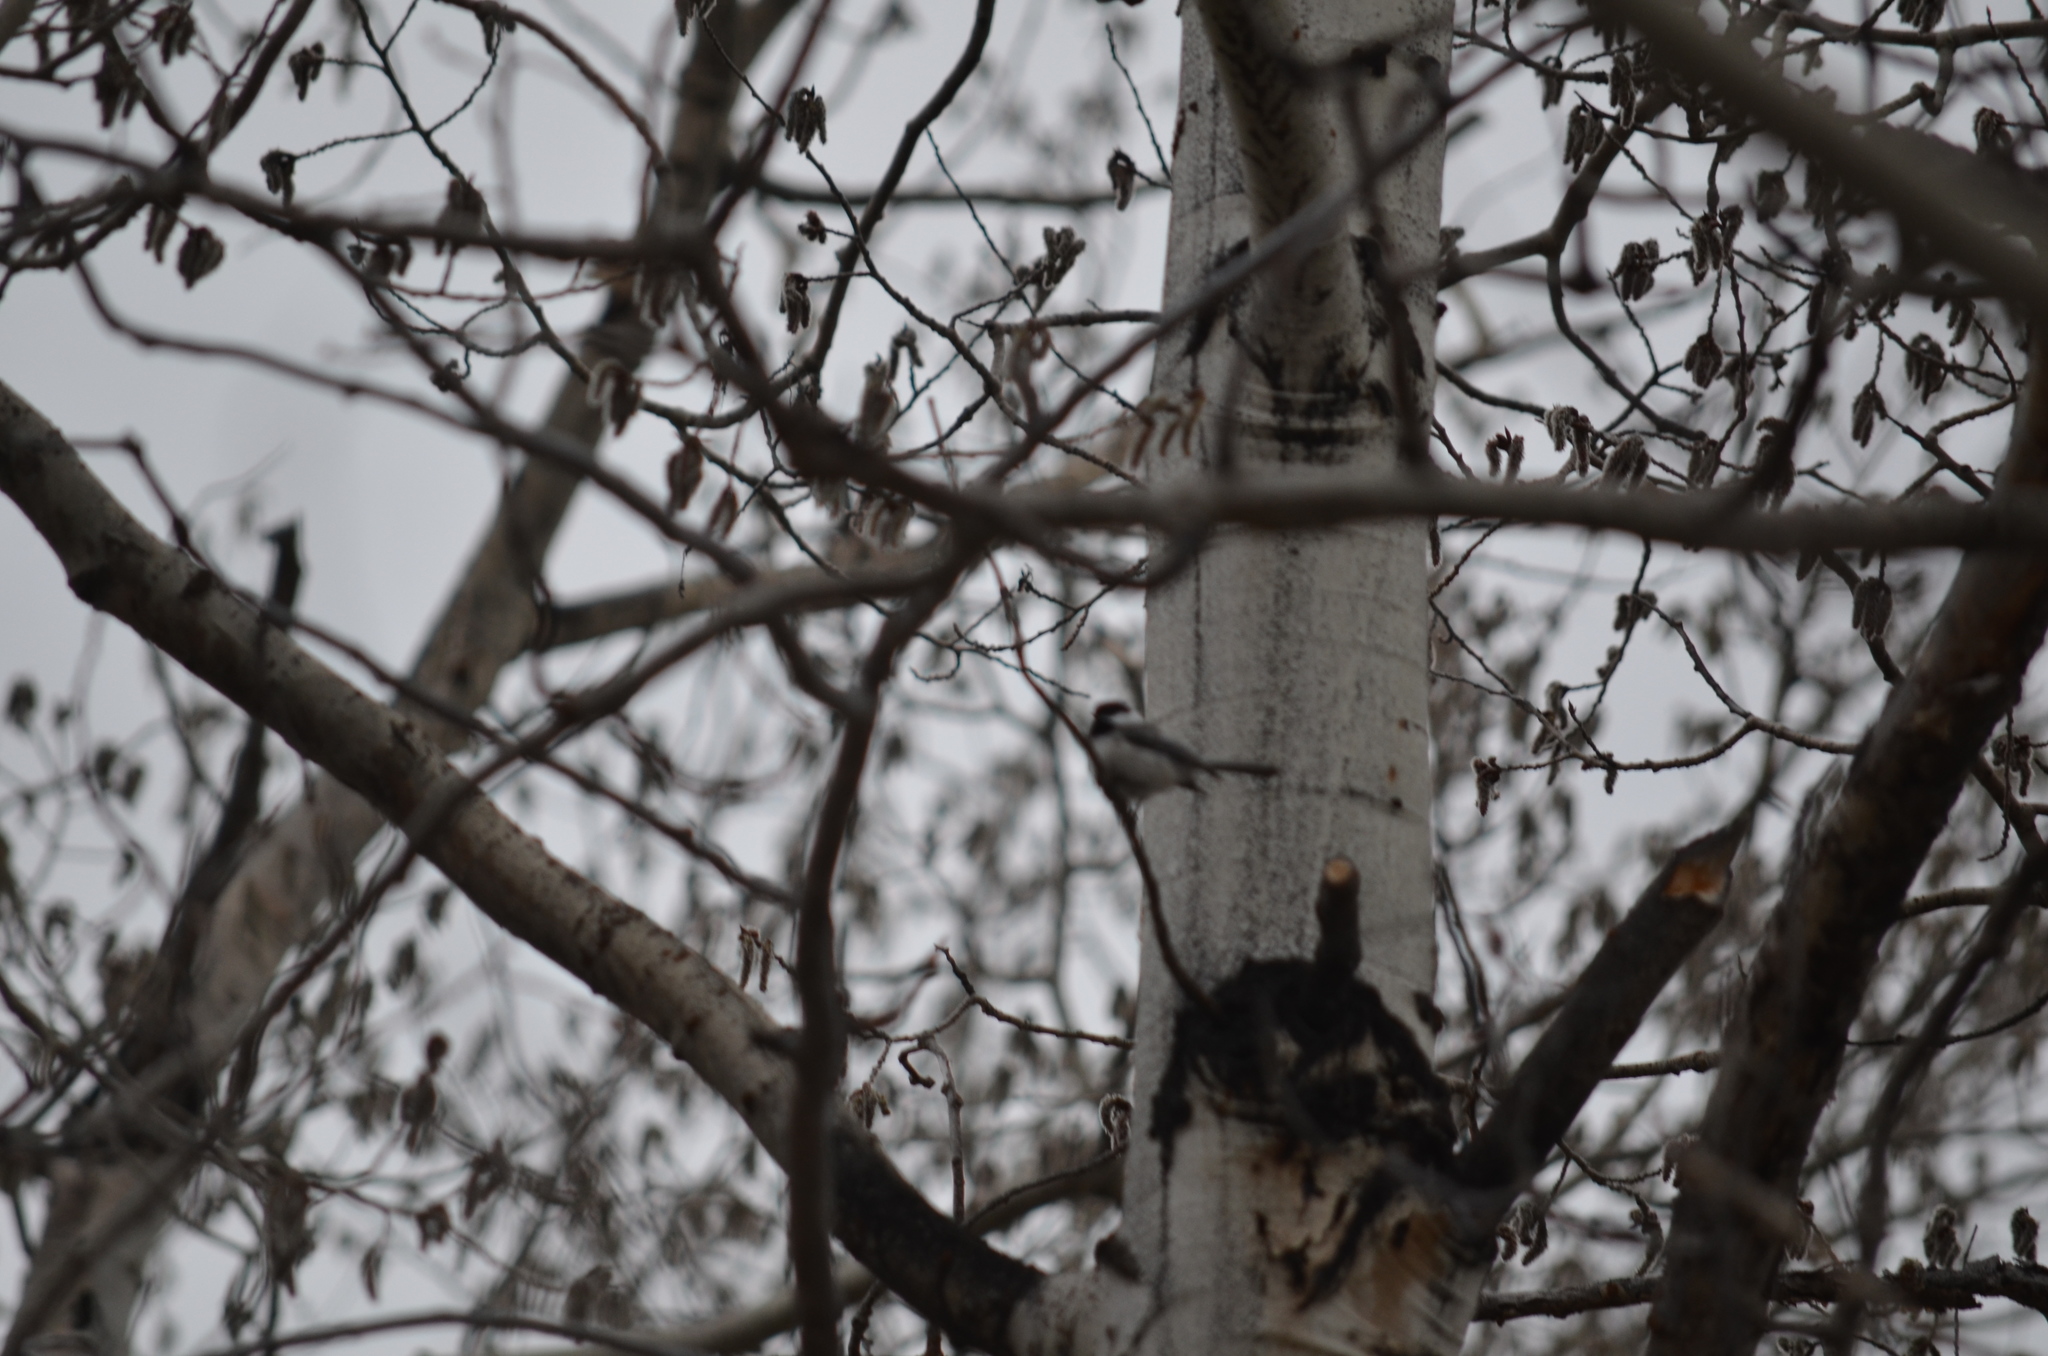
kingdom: Animalia
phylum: Chordata
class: Aves
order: Passeriformes
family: Paridae
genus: Poecile
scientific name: Poecile atricapillus
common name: Black-capped chickadee
